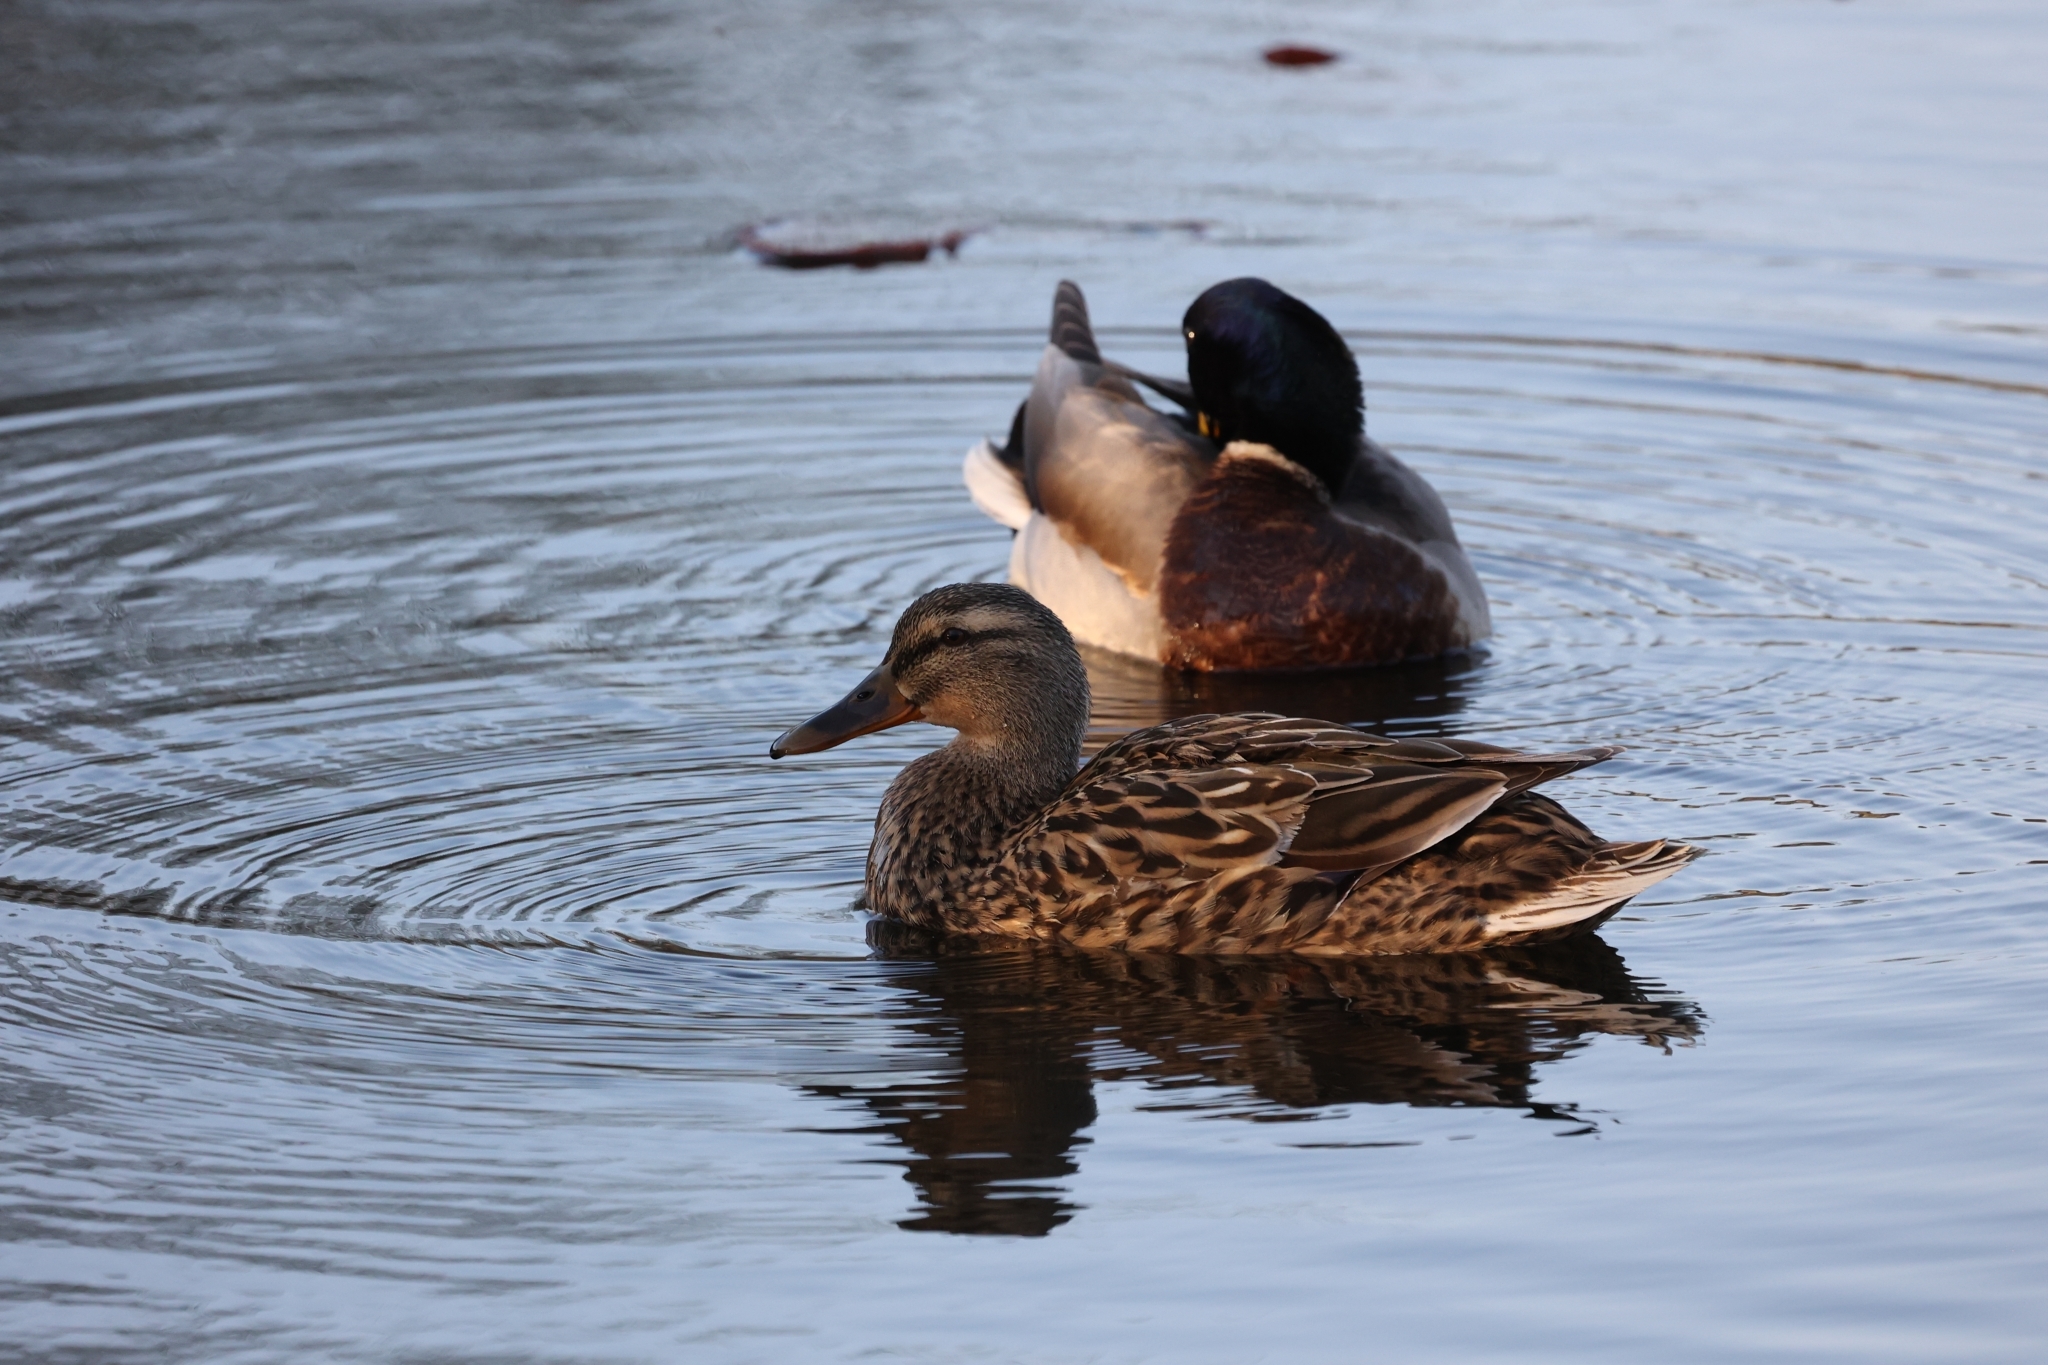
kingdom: Animalia
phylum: Chordata
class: Aves
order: Anseriformes
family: Anatidae
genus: Anas
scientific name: Anas platyrhynchos
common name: Mallard
